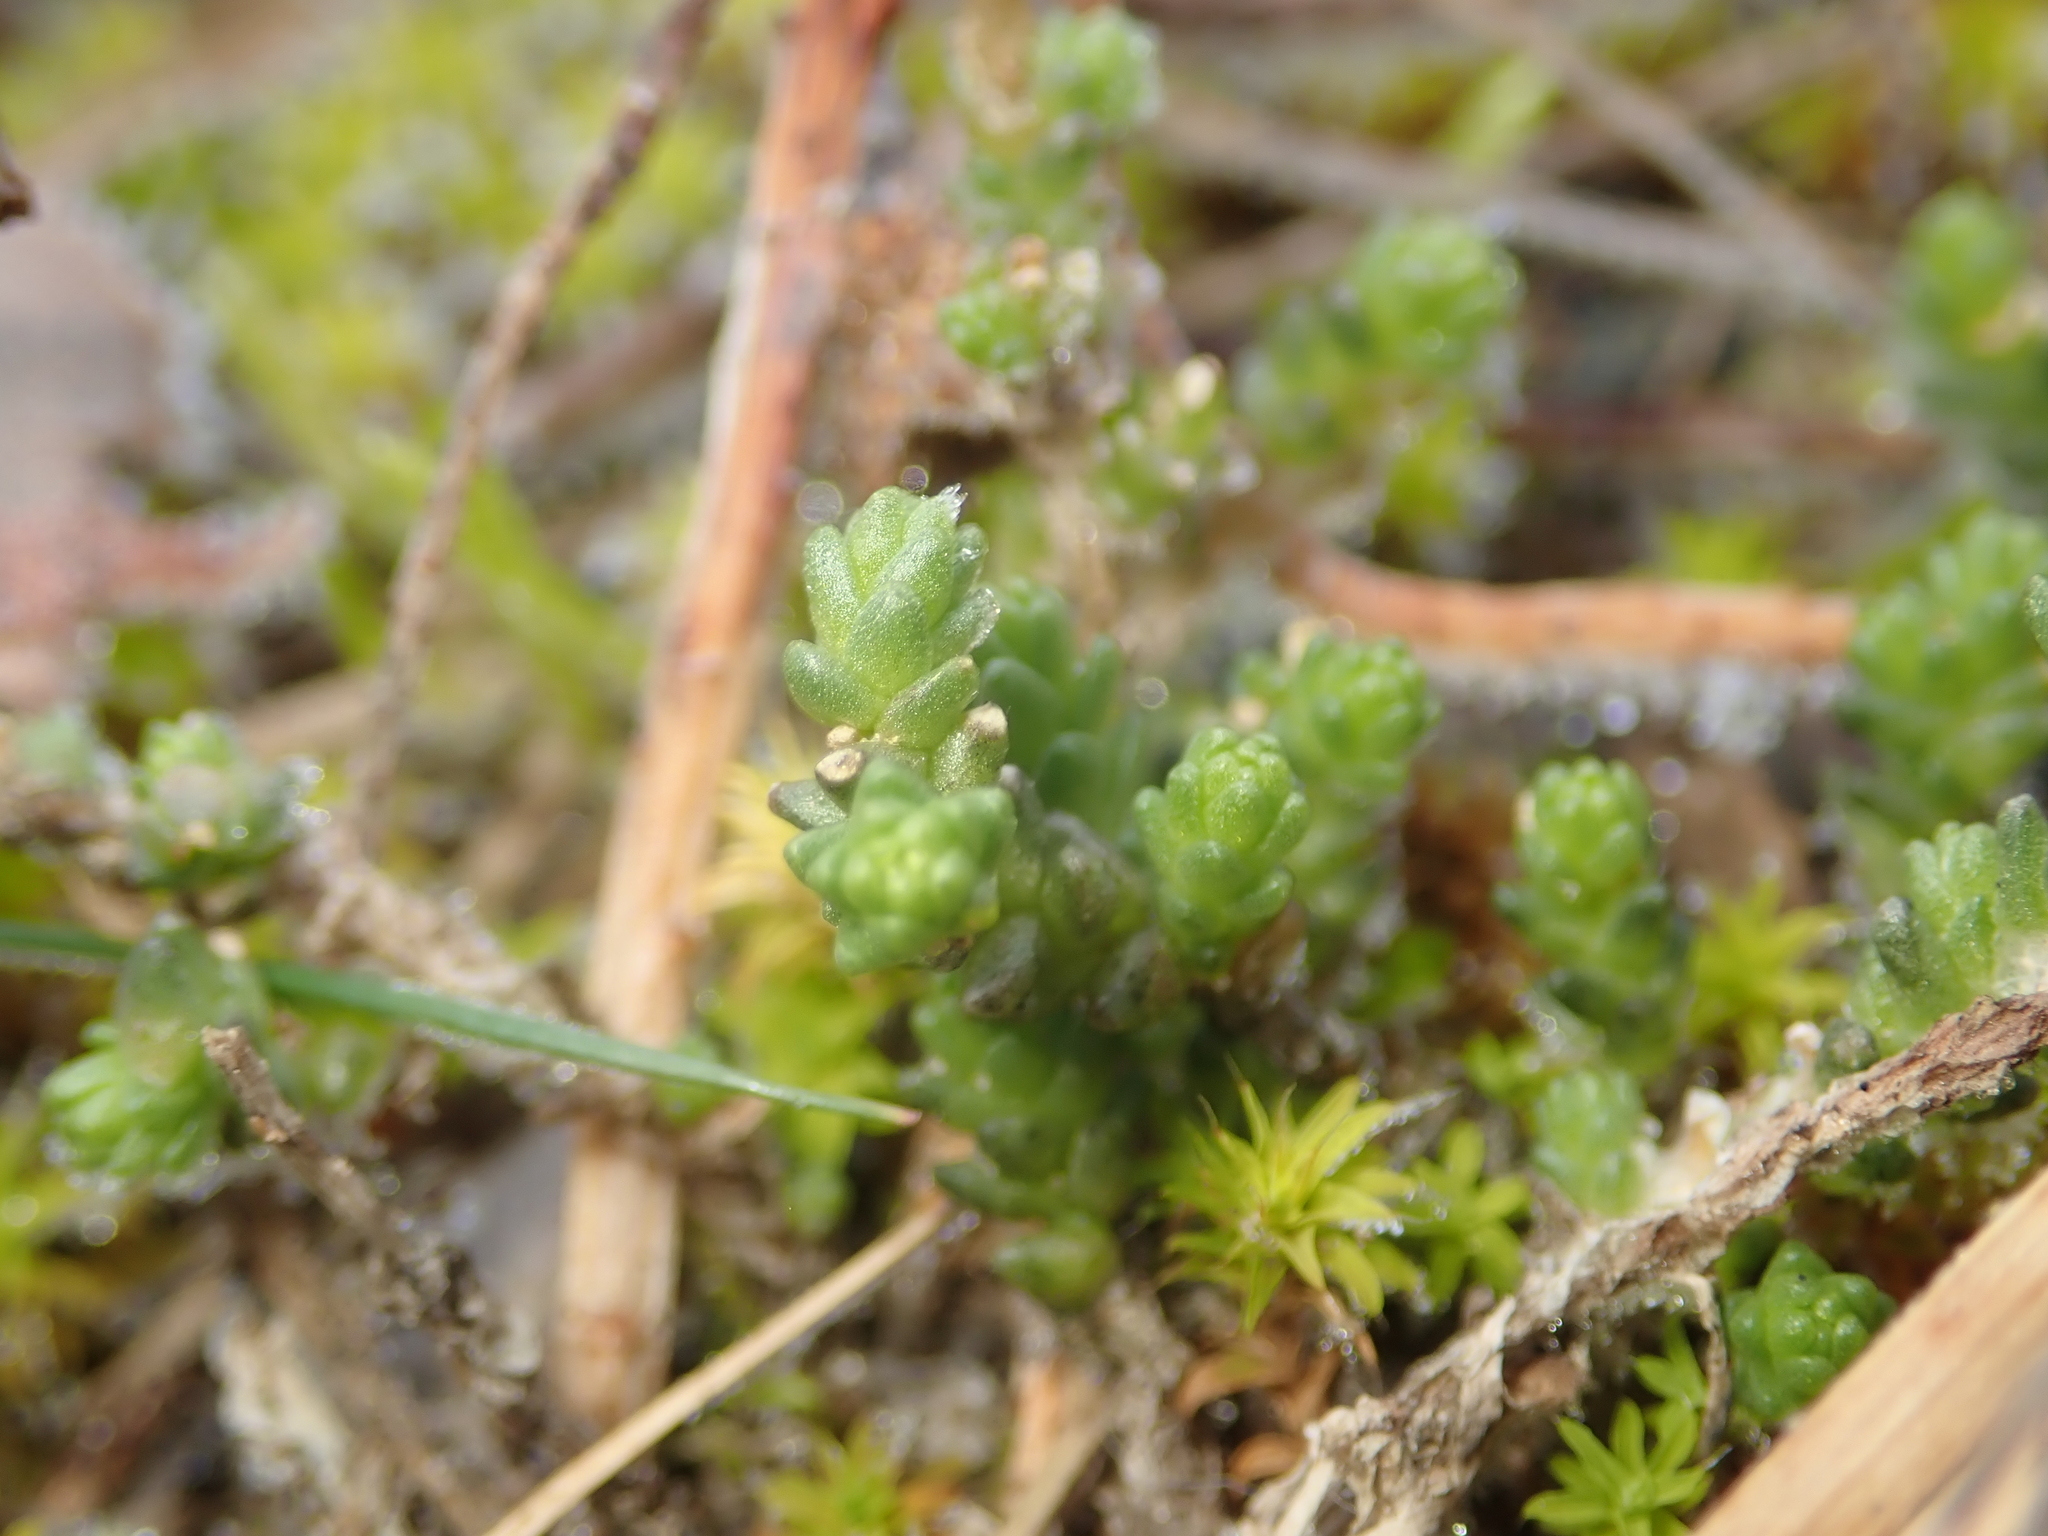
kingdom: Plantae
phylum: Tracheophyta
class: Magnoliopsida
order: Saxifragales
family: Crassulaceae
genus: Sedum
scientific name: Sedum acre
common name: Biting stonecrop
